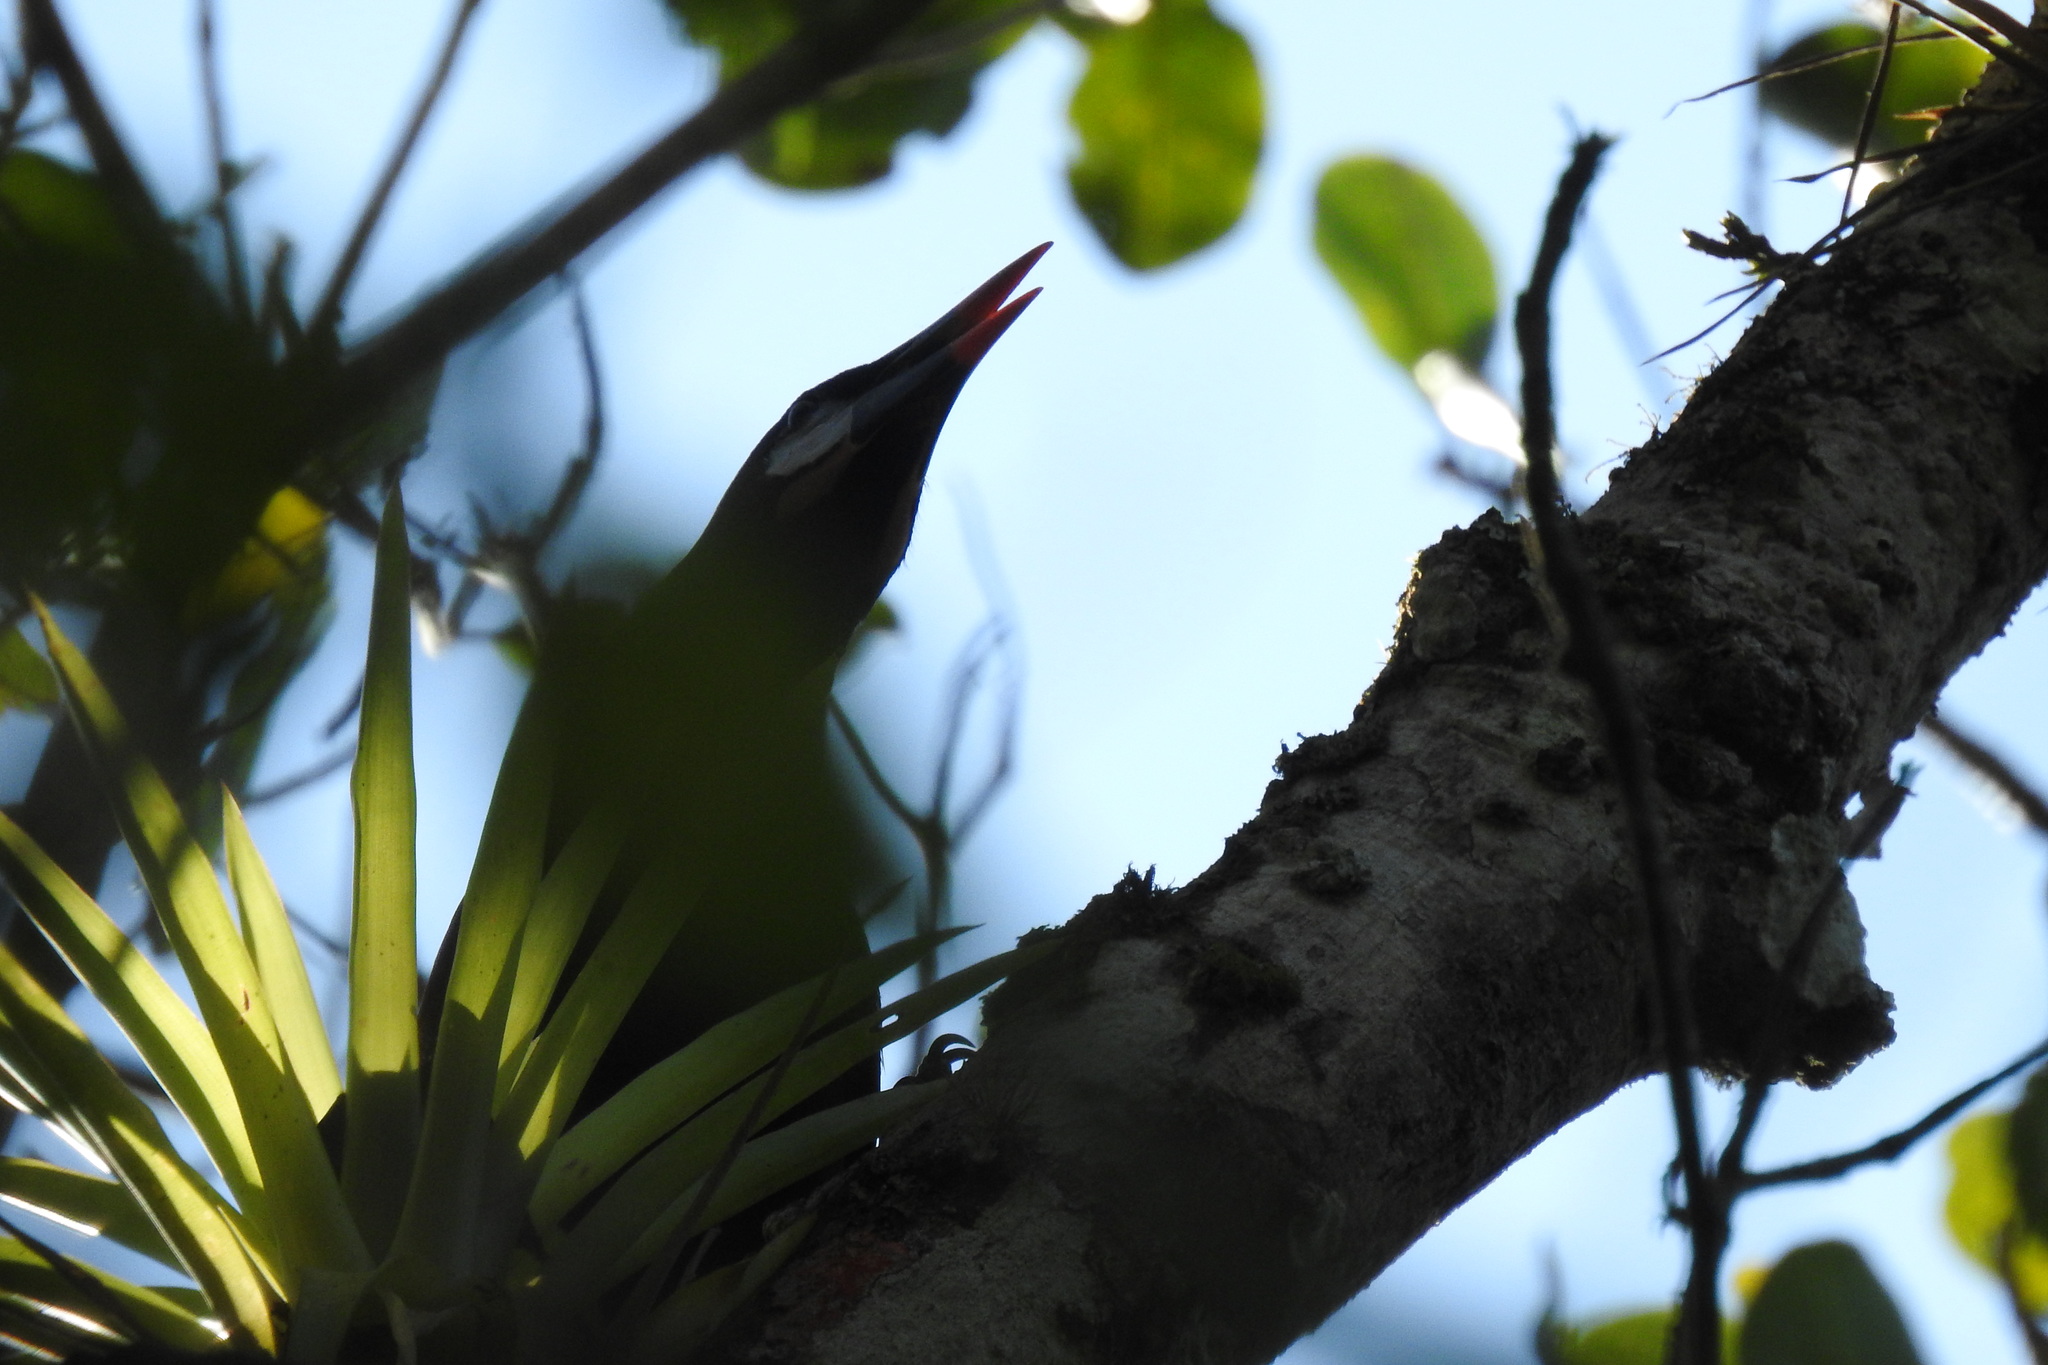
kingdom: Animalia
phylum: Chordata
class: Aves
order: Passeriformes
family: Icteridae
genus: Psarocolius
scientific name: Psarocolius montezuma
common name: Montezuma oropendola
